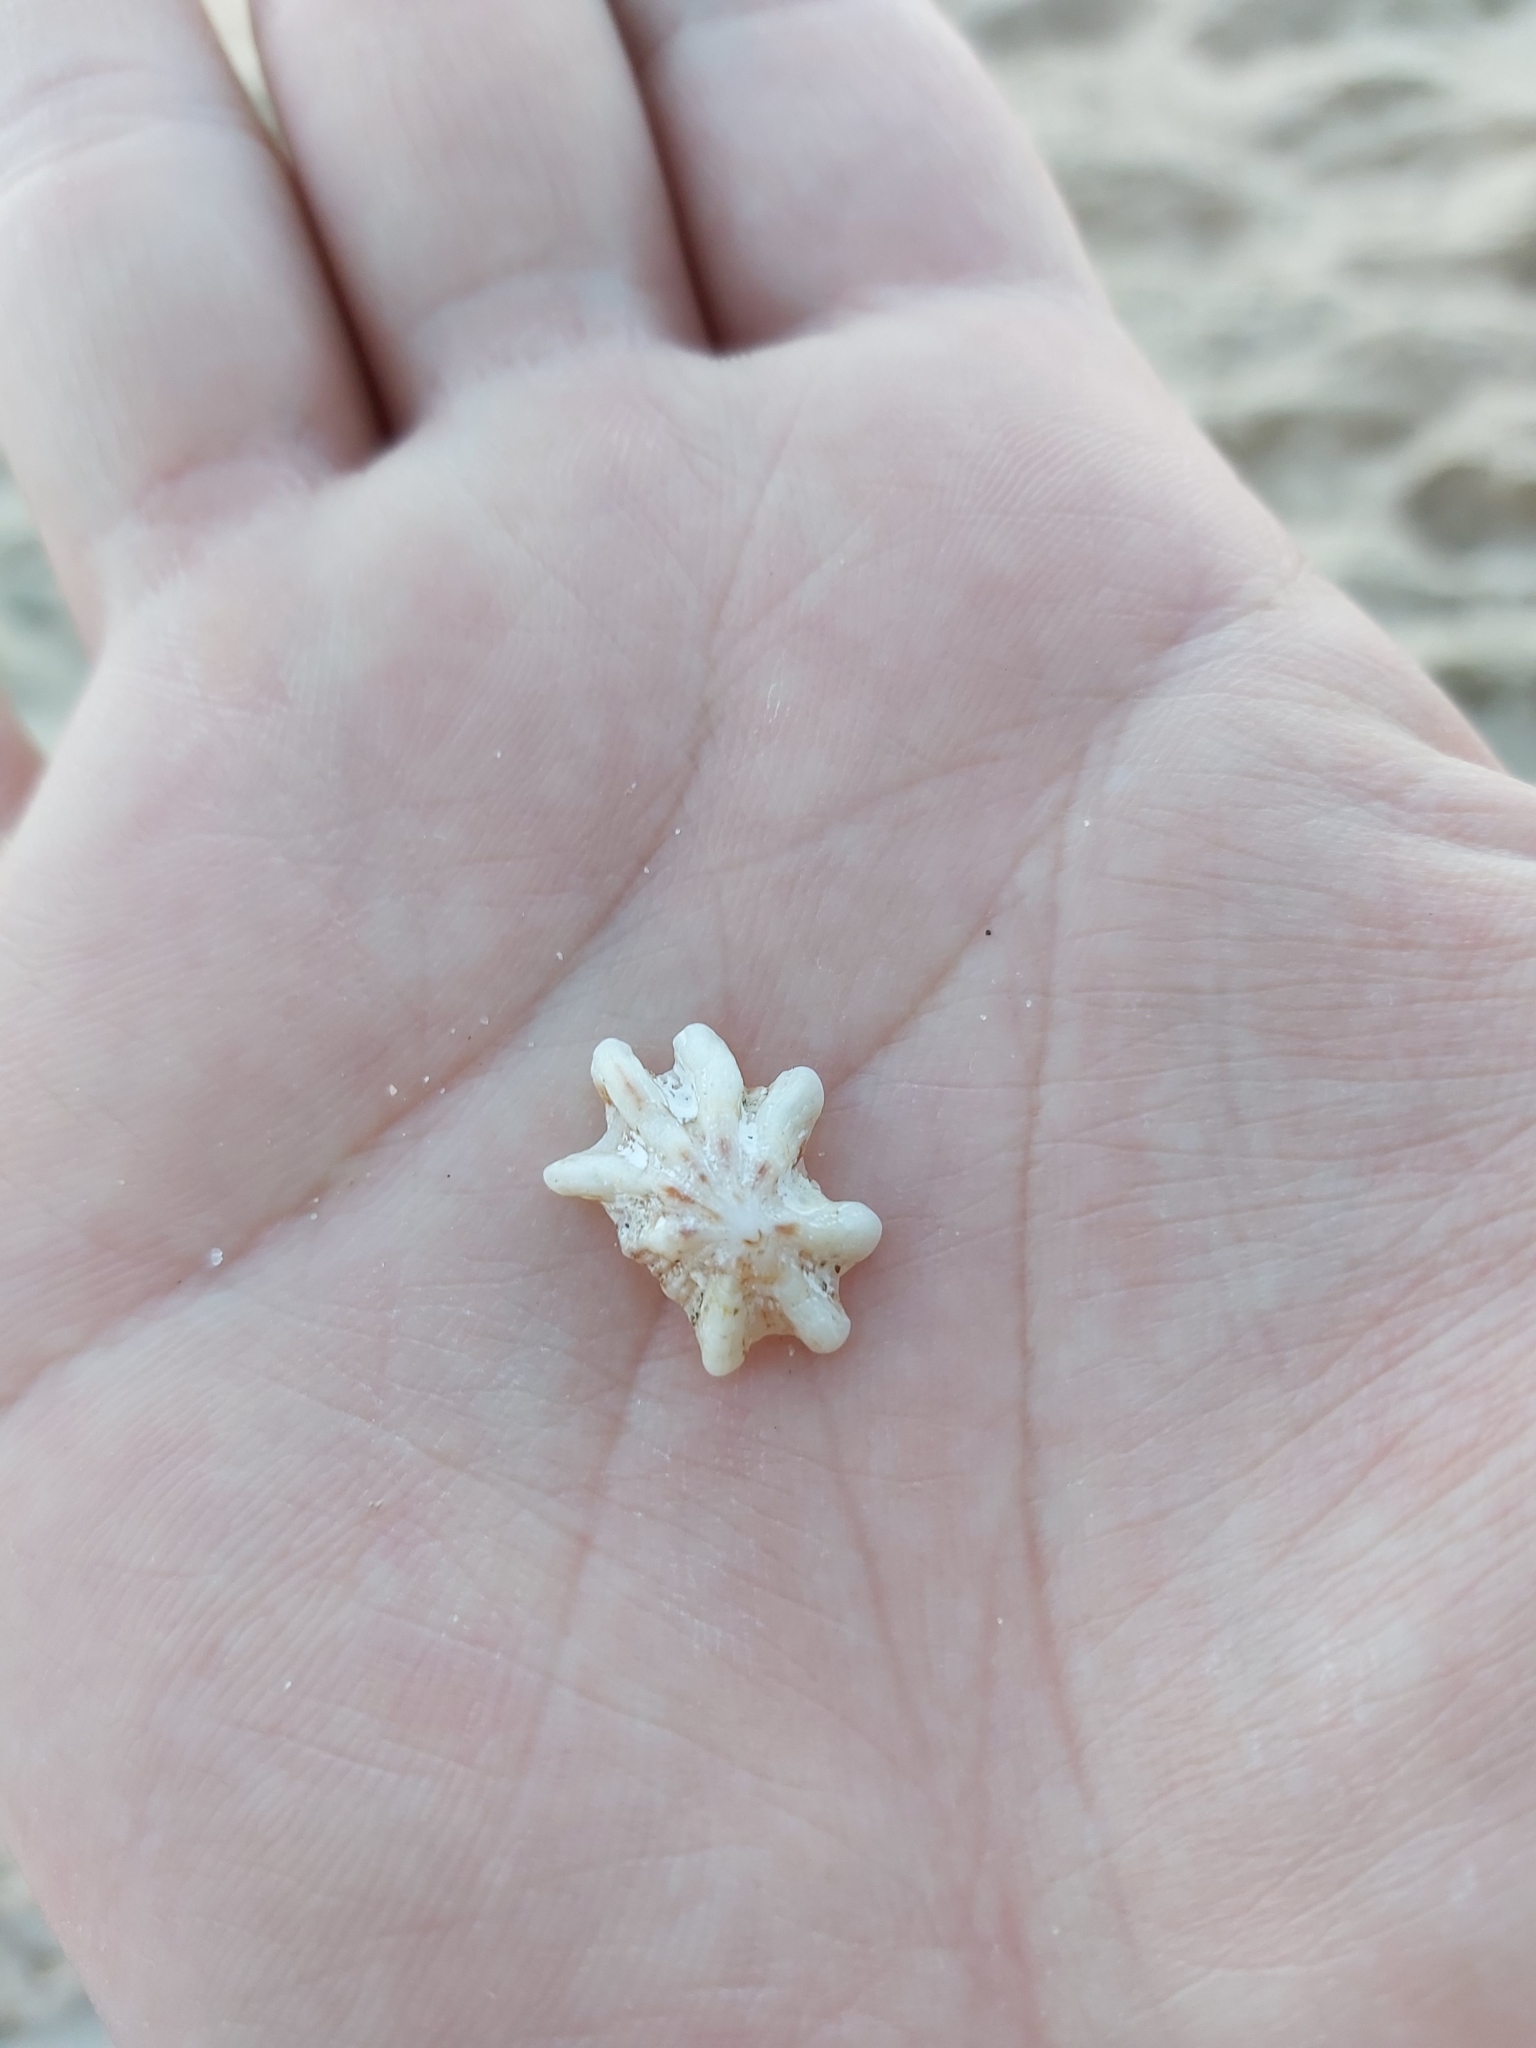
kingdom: Animalia
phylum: Mollusca
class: Gastropoda
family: Patellidae
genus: Scutellastra
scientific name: Scutellastra chapmani
